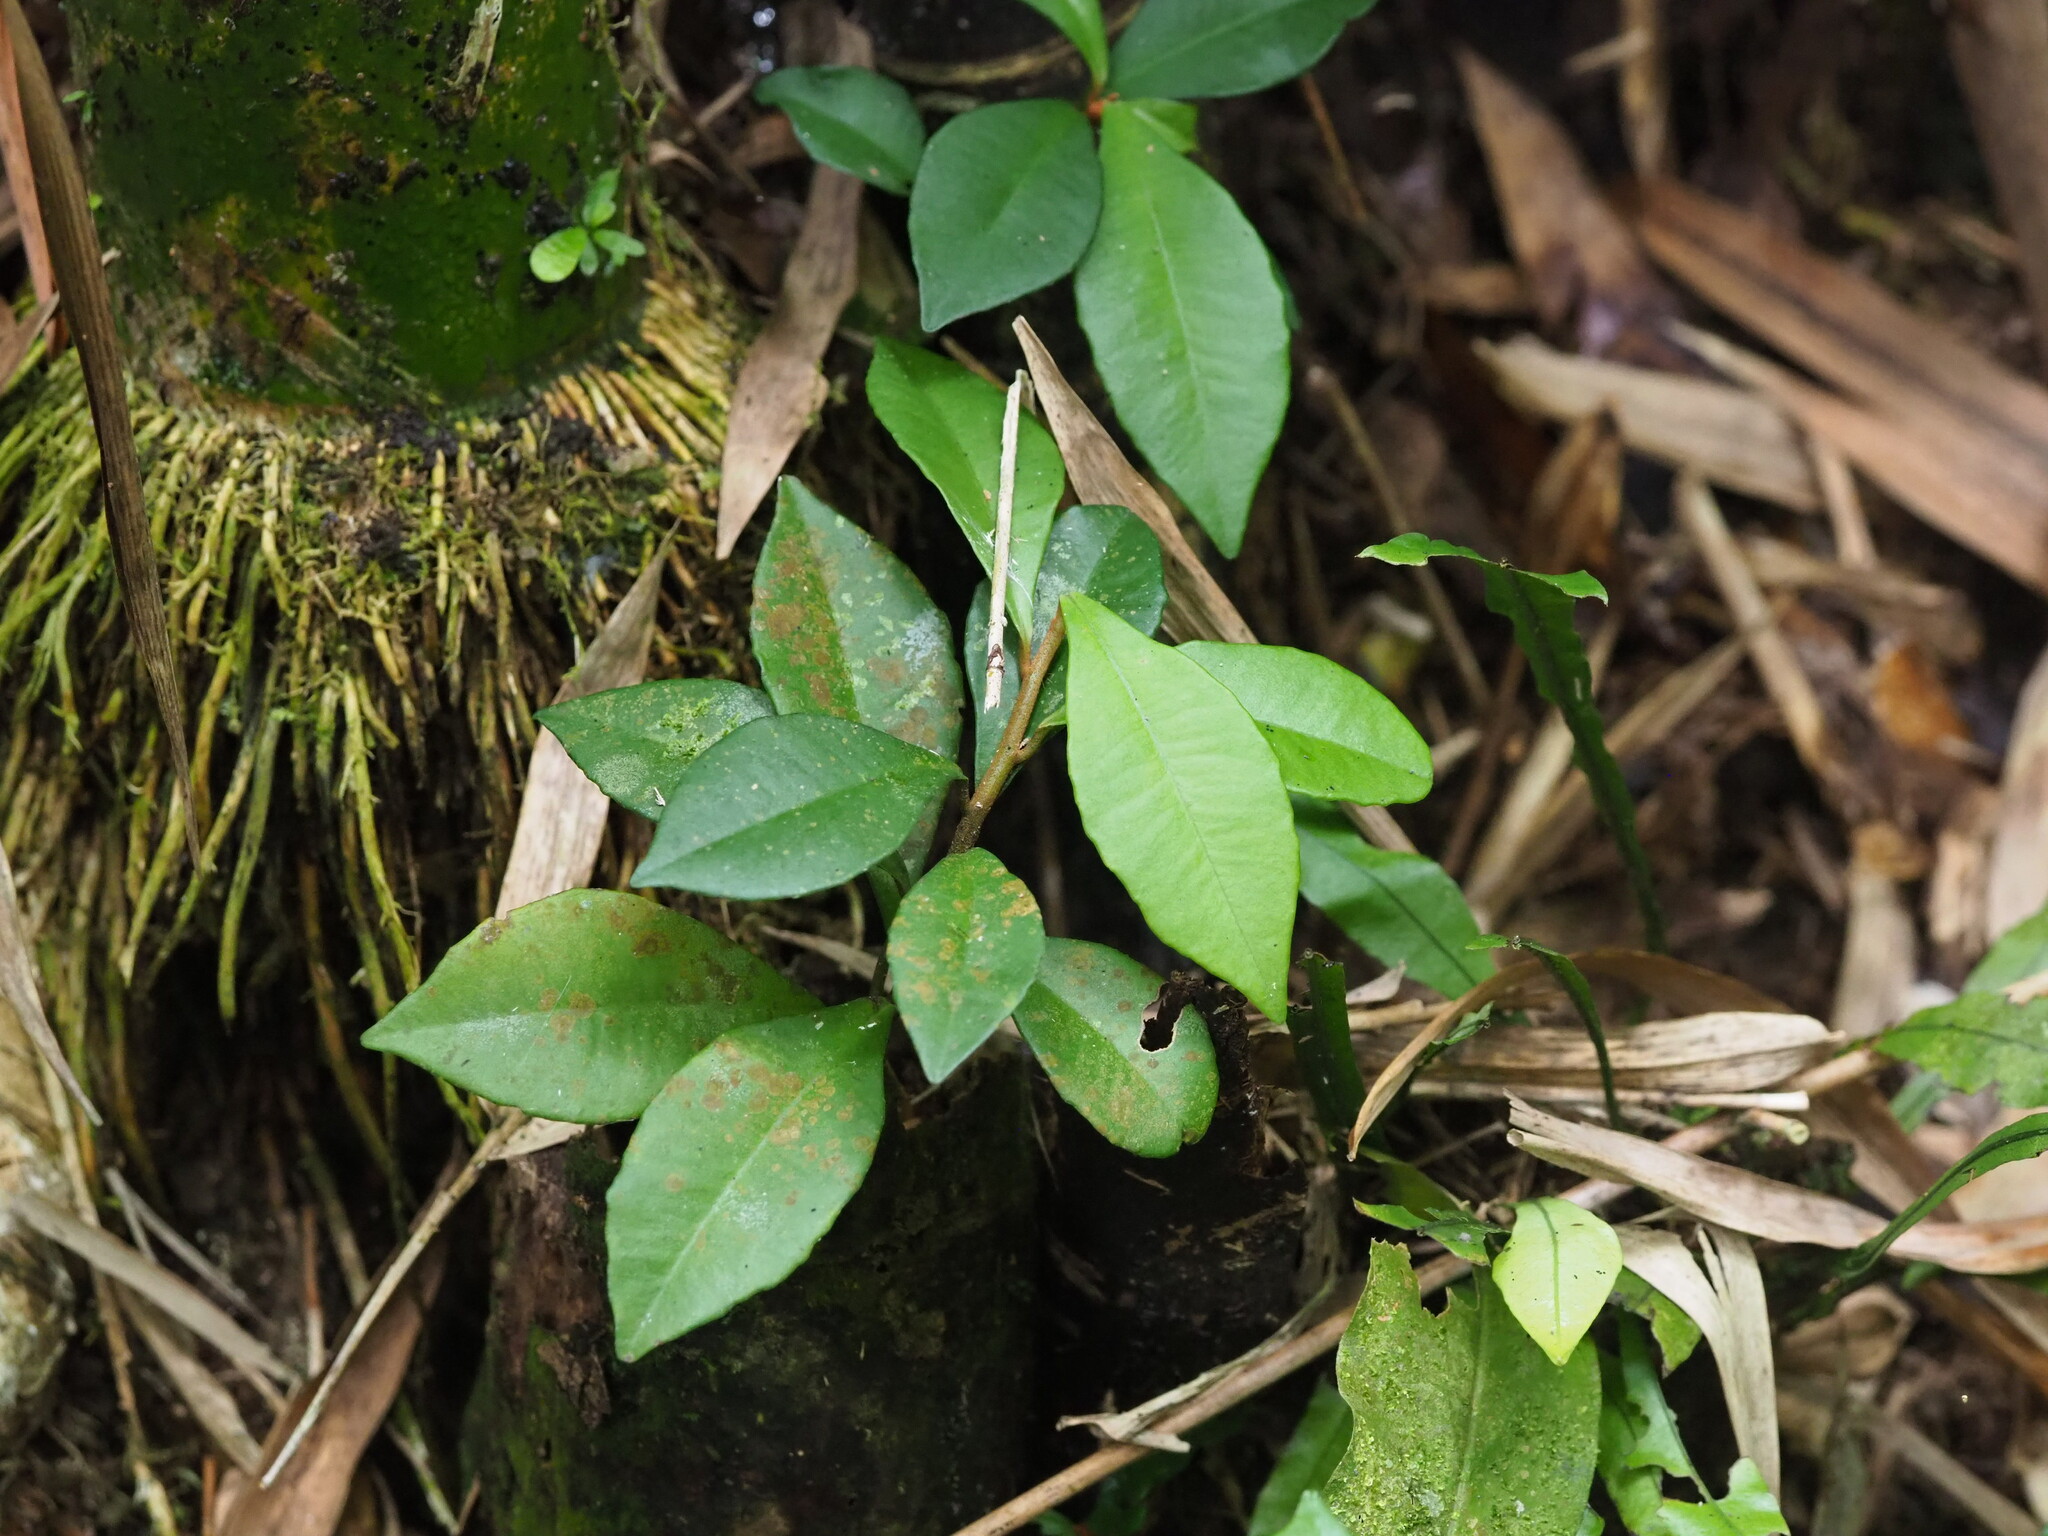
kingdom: Plantae
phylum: Tracheophyta
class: Magnoliopsida
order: Ericales
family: Primulaceae
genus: Ardisia
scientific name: Ardisia cymosa
